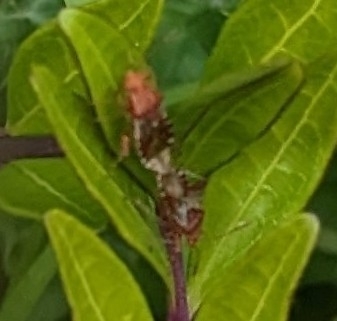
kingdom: Animalia
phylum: Arthropoda
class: Insecta
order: Hemiptera
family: Rhopalidae
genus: Rhopalus
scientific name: Rhopalus subrufus
